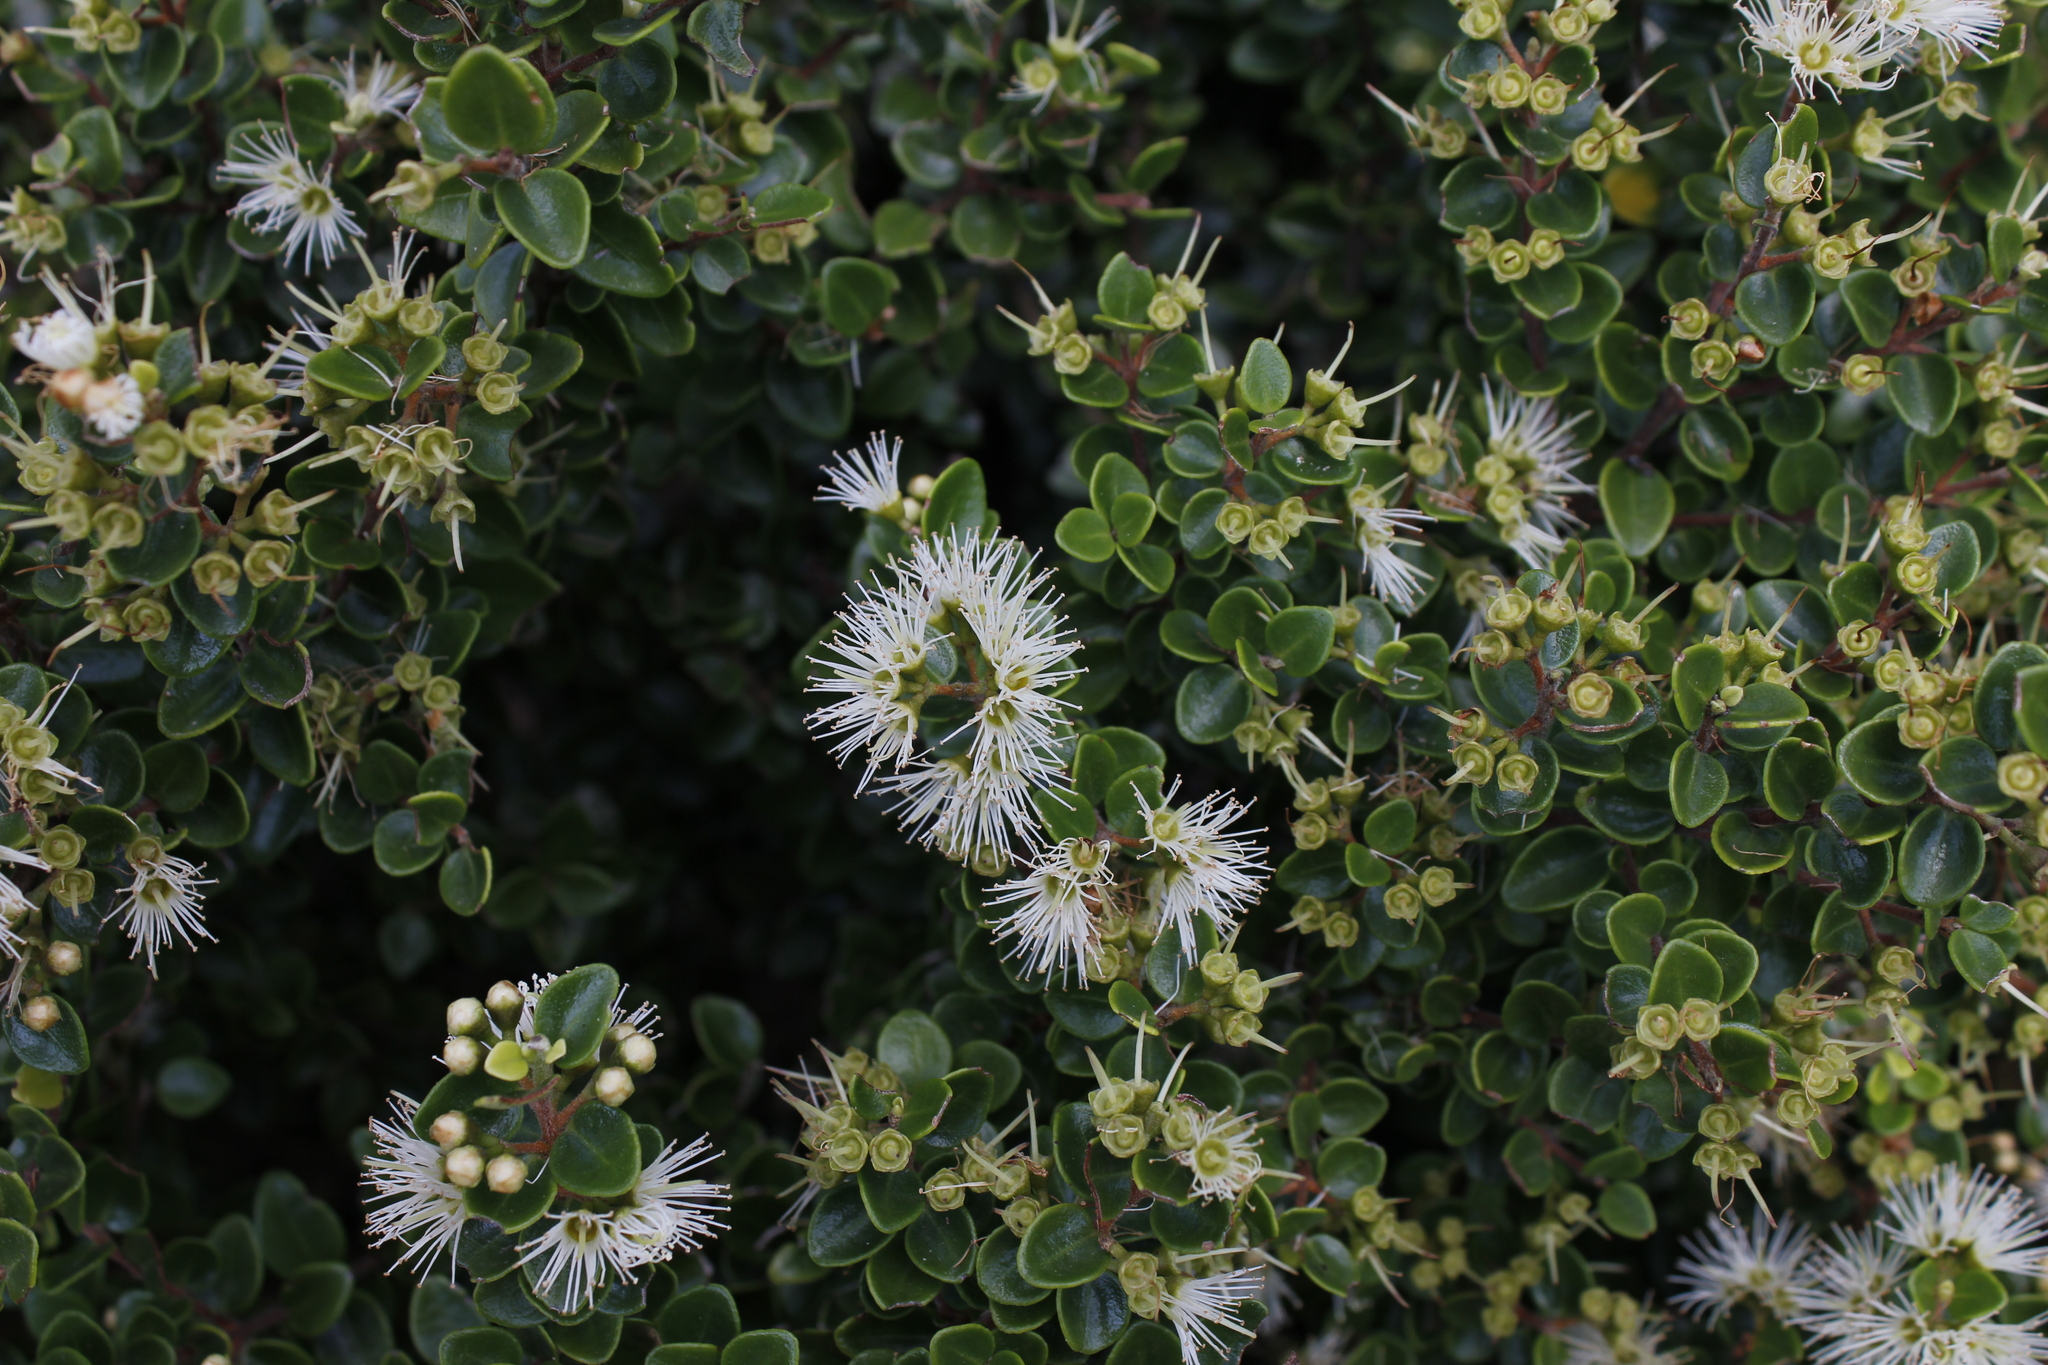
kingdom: Plantae
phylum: Tracheophyta
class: Magnoliopsida
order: Myrtales
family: Myrtaceae
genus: Metrosideros
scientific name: Metrosideros perforata
